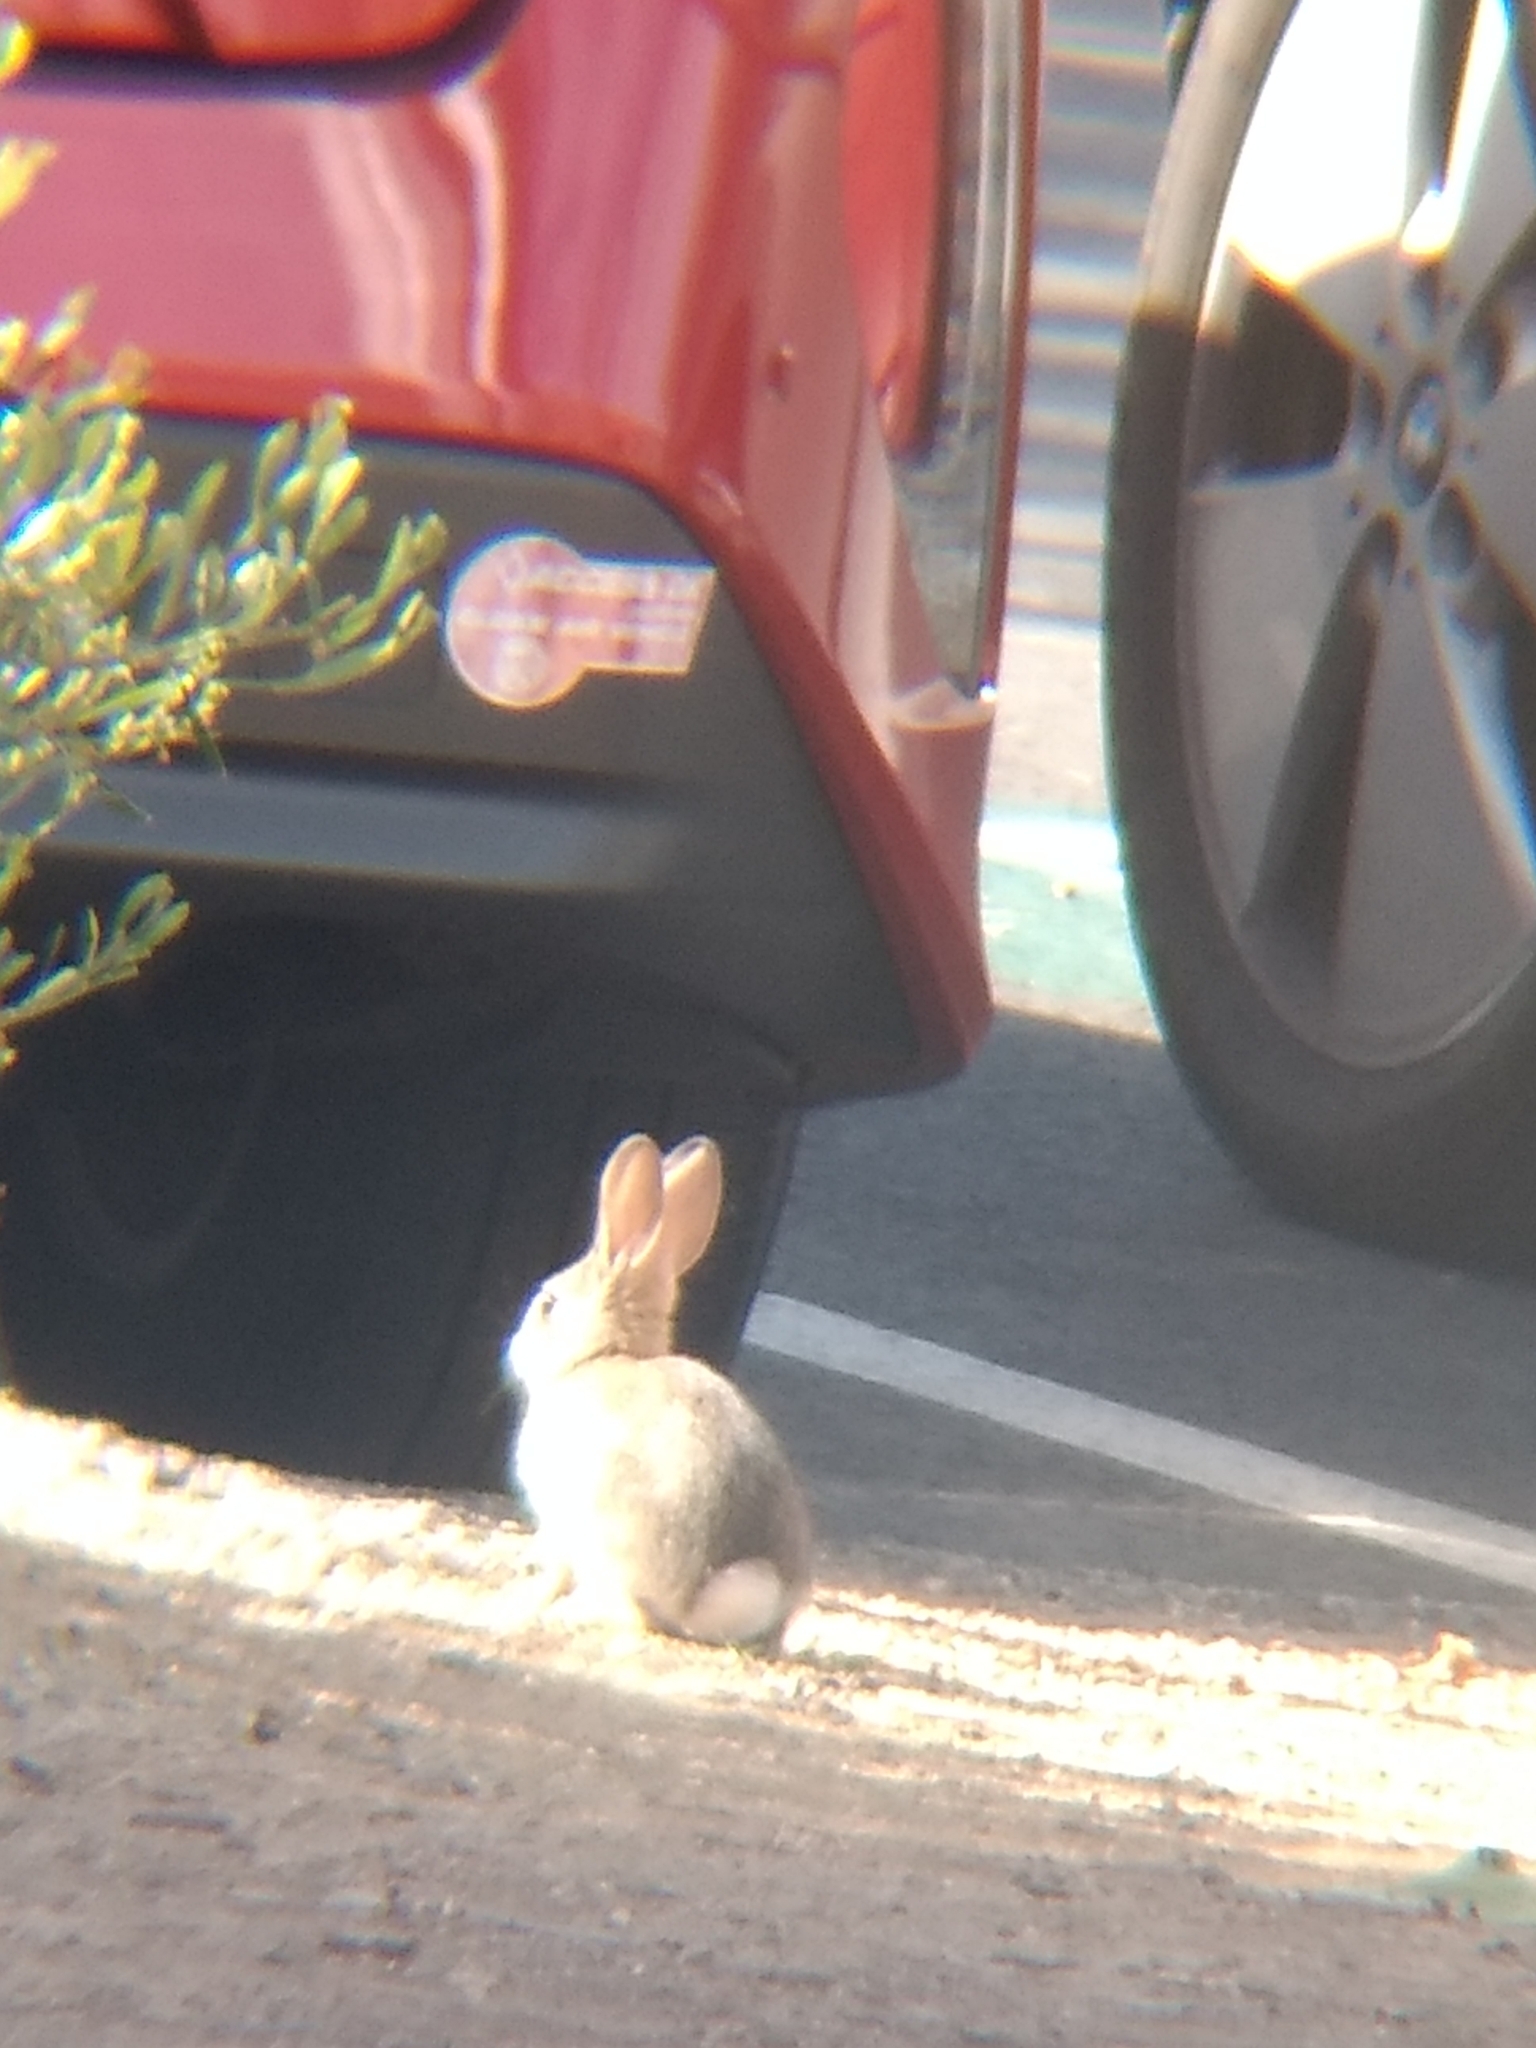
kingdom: Animalia
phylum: Chordata
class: Mammalia
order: Lagomorpha
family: Leporidae
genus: Sylvilagus
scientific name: Sylvilagus audubonii
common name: Desert cottontail
